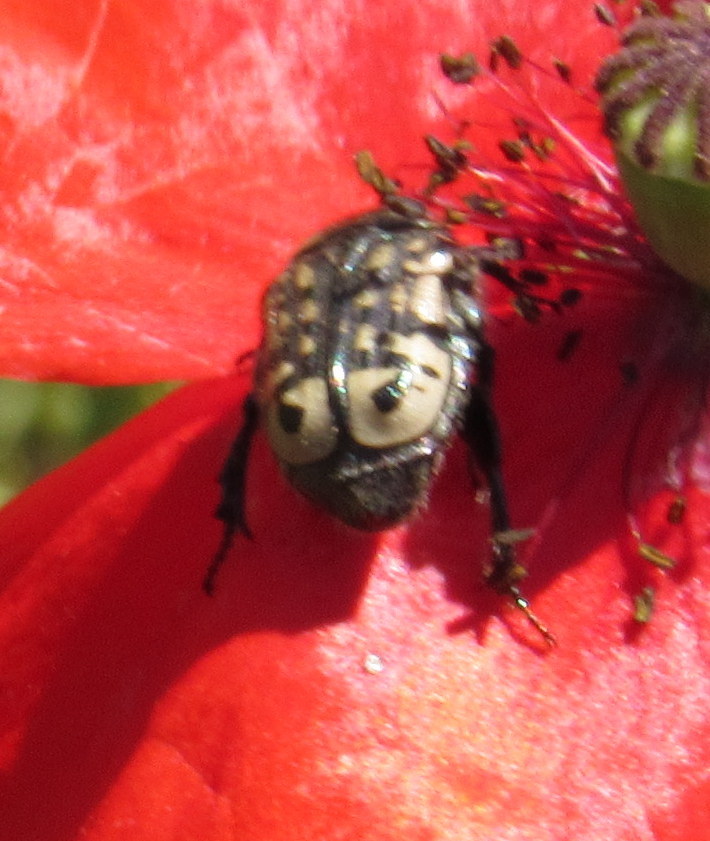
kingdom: Animalia
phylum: Arthropoda
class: Insecta
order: Coleoptera
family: Scarabaeidae
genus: Euphoria
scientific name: Euphoria kernii
